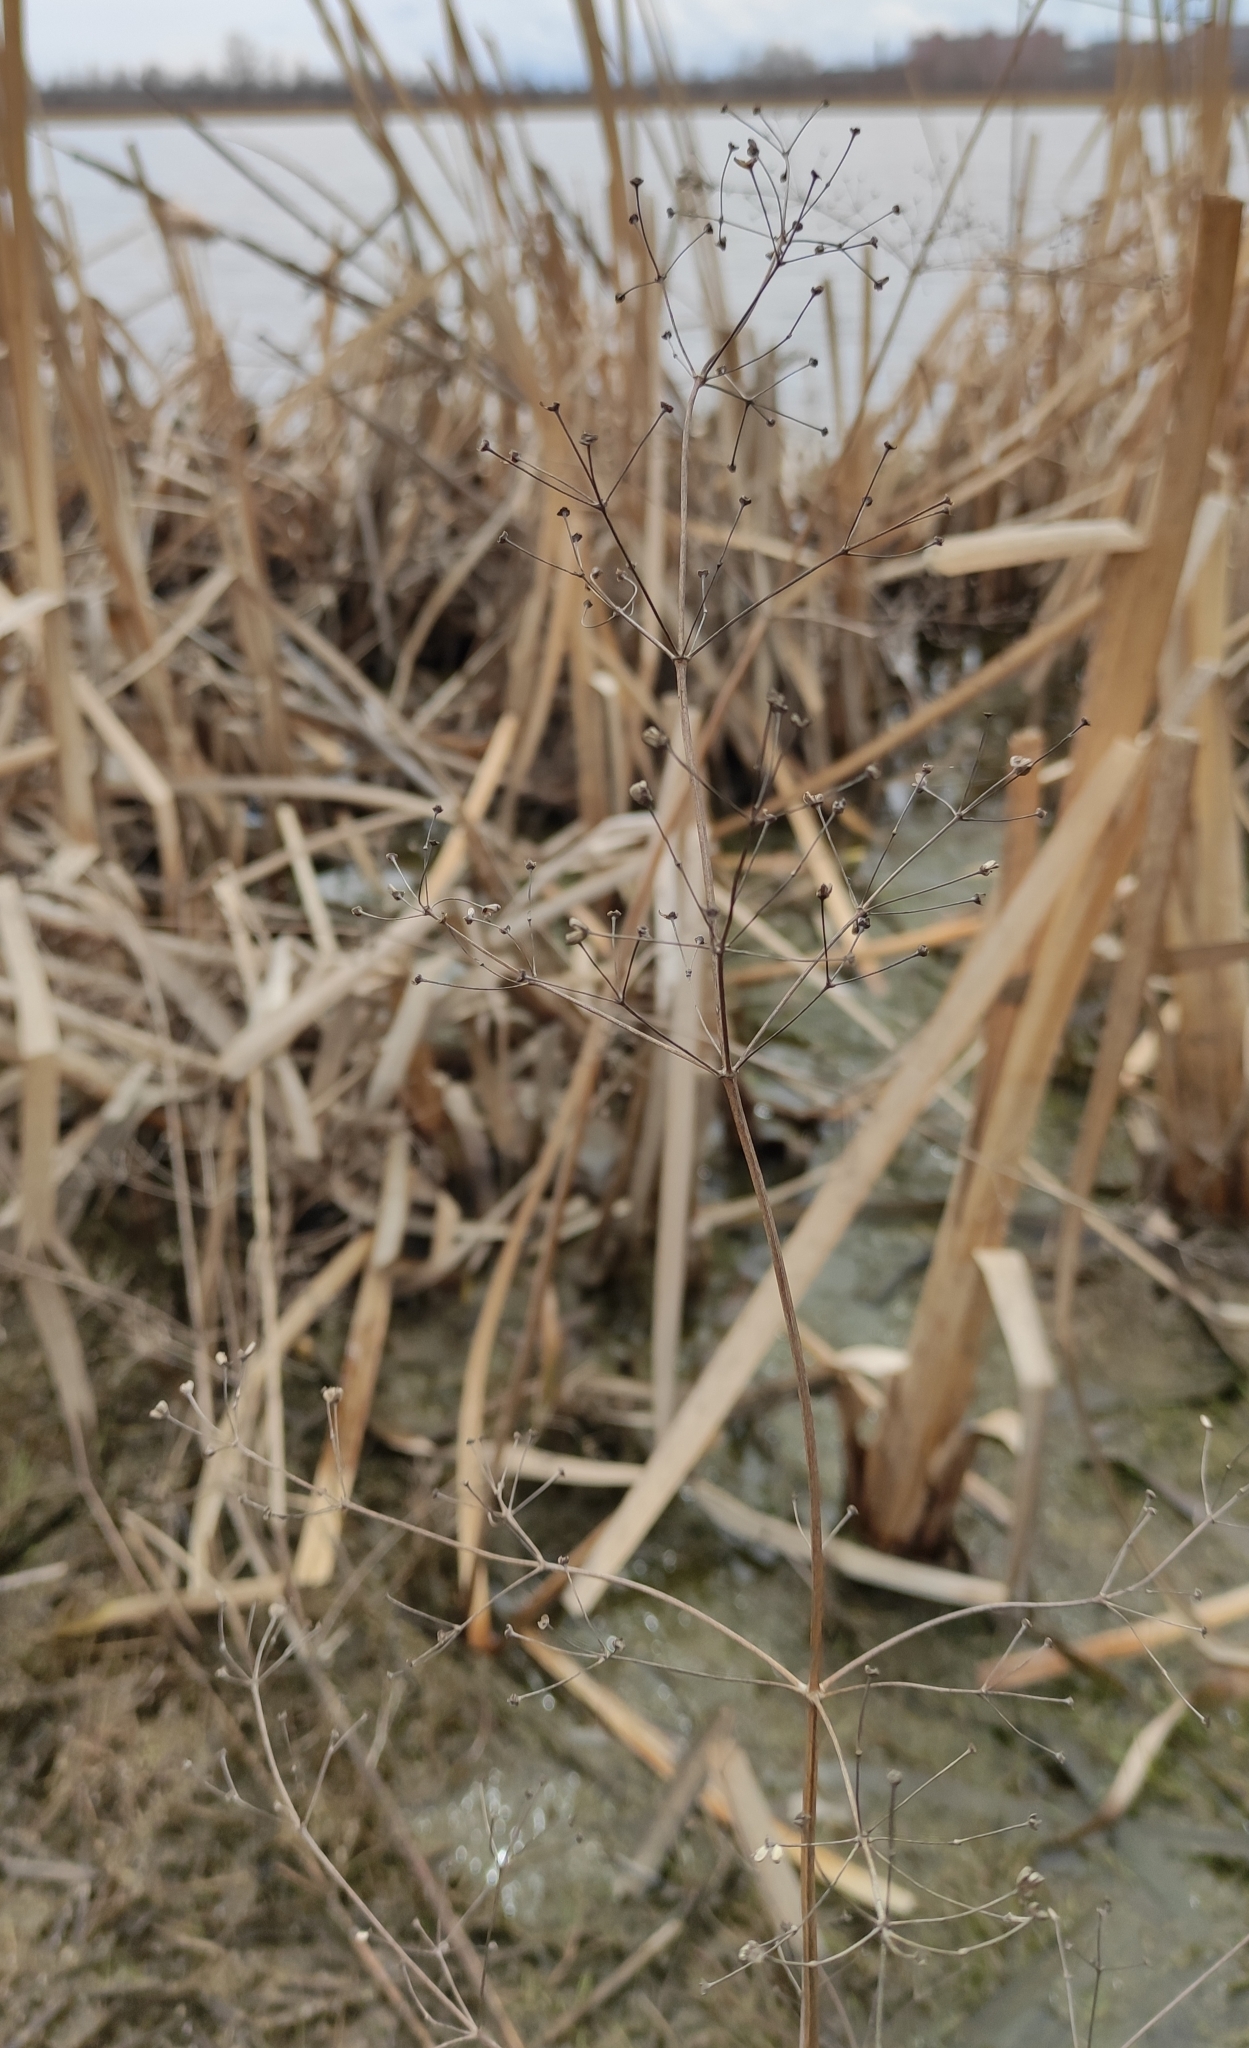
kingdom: Plantae
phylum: Tracheophyta
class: Liliopsida
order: Alismatales
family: Alismataceae
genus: Alisma
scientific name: Alisma plantago-aquatica
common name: Water-plantain
